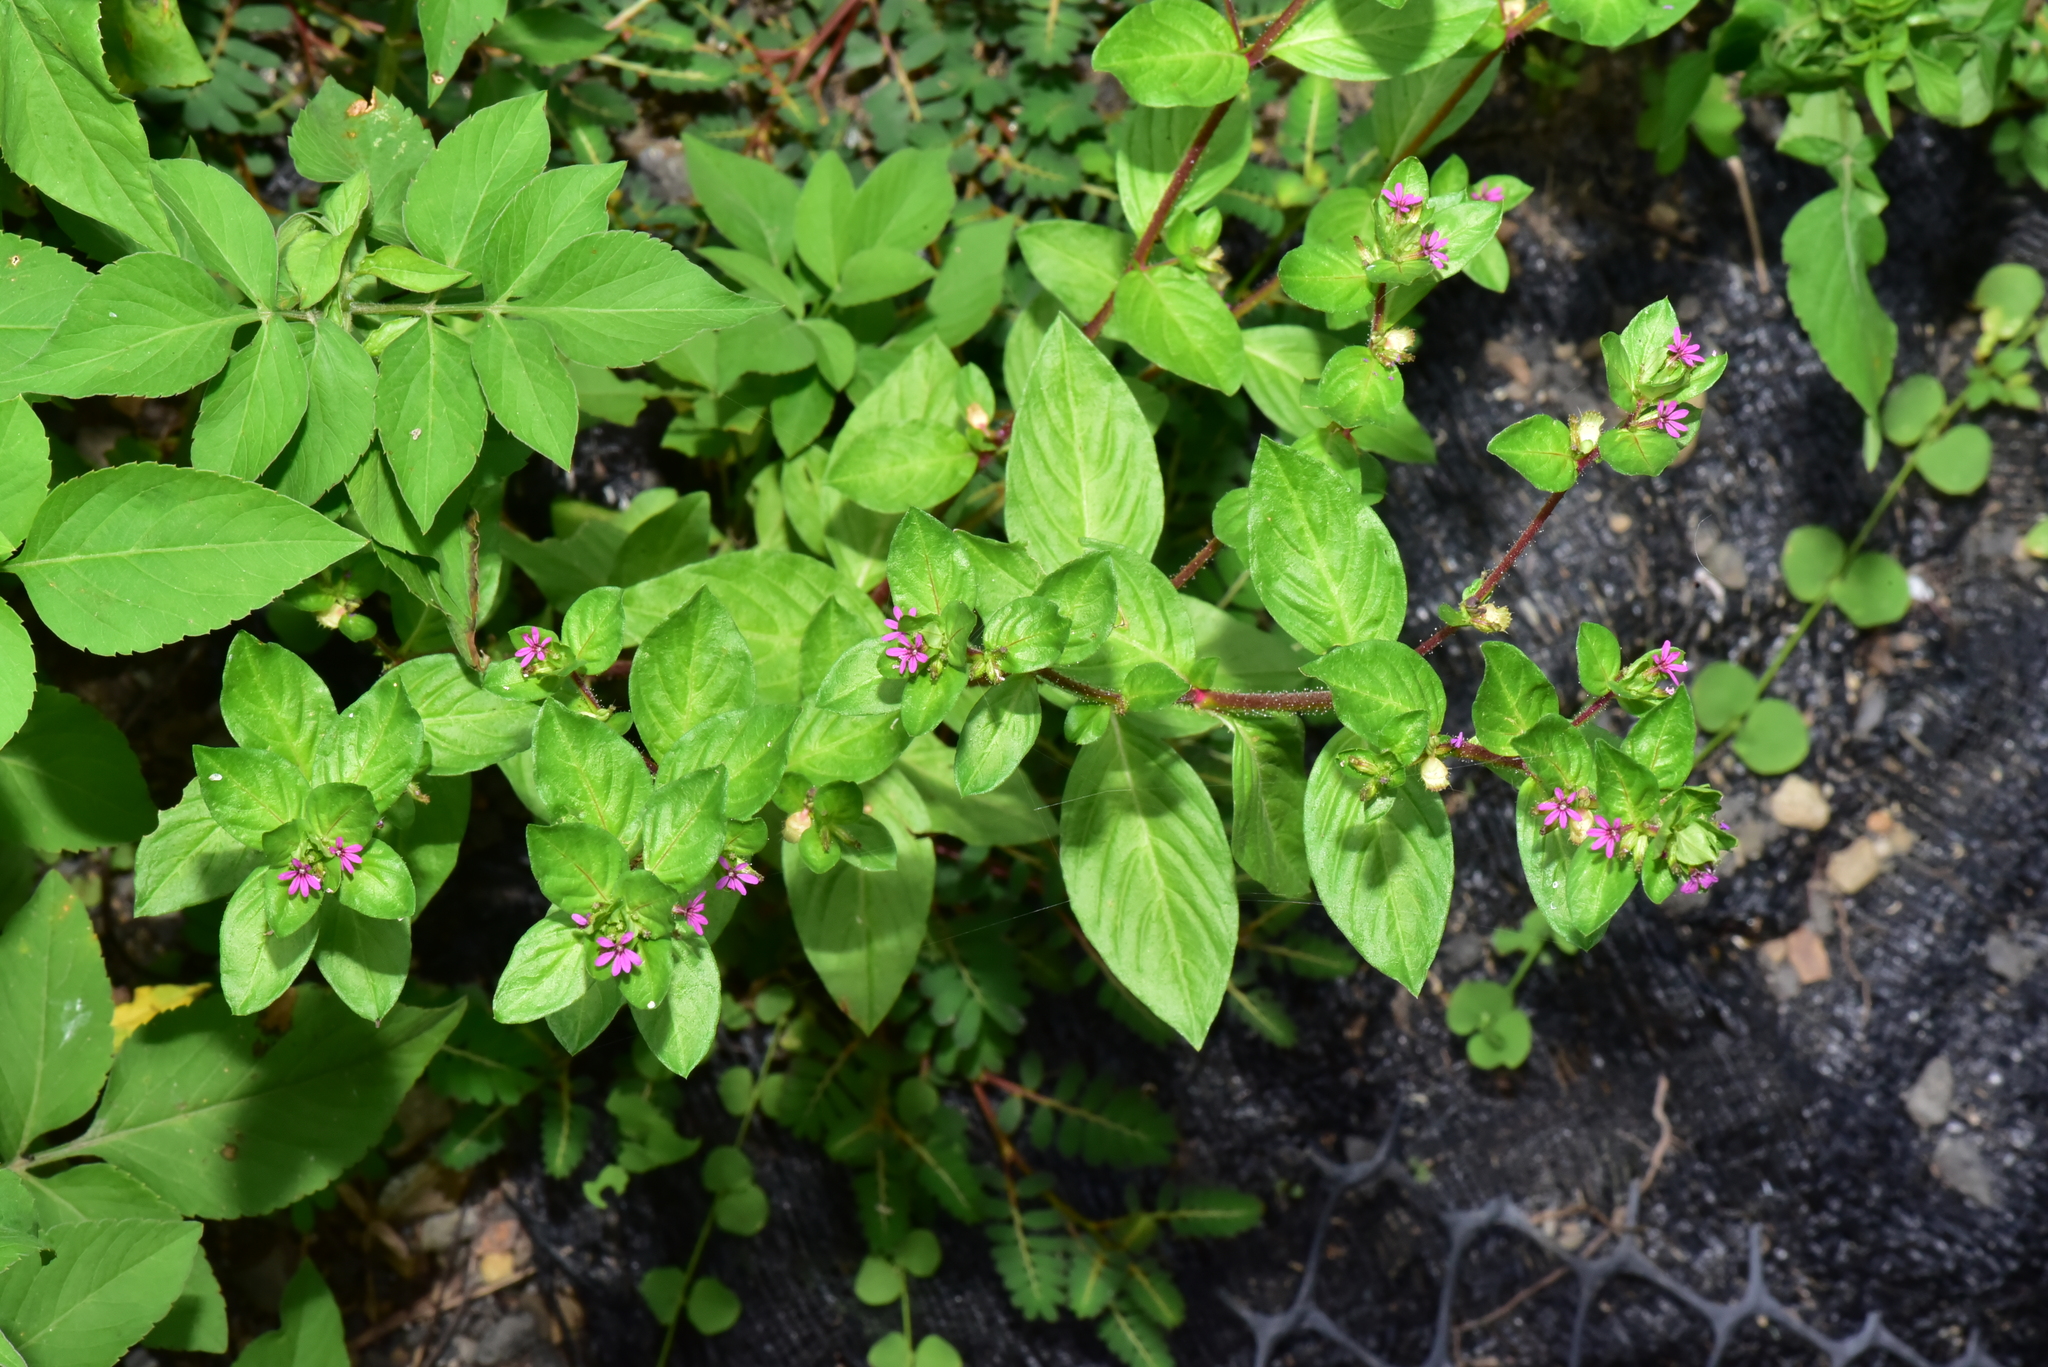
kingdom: Plantae
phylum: Tracheophyta
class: Magnoliopsida
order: Myrtales
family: Lythraceae
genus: Cuphea
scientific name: Cuphea carthagenensis
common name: Colombian waxweed
